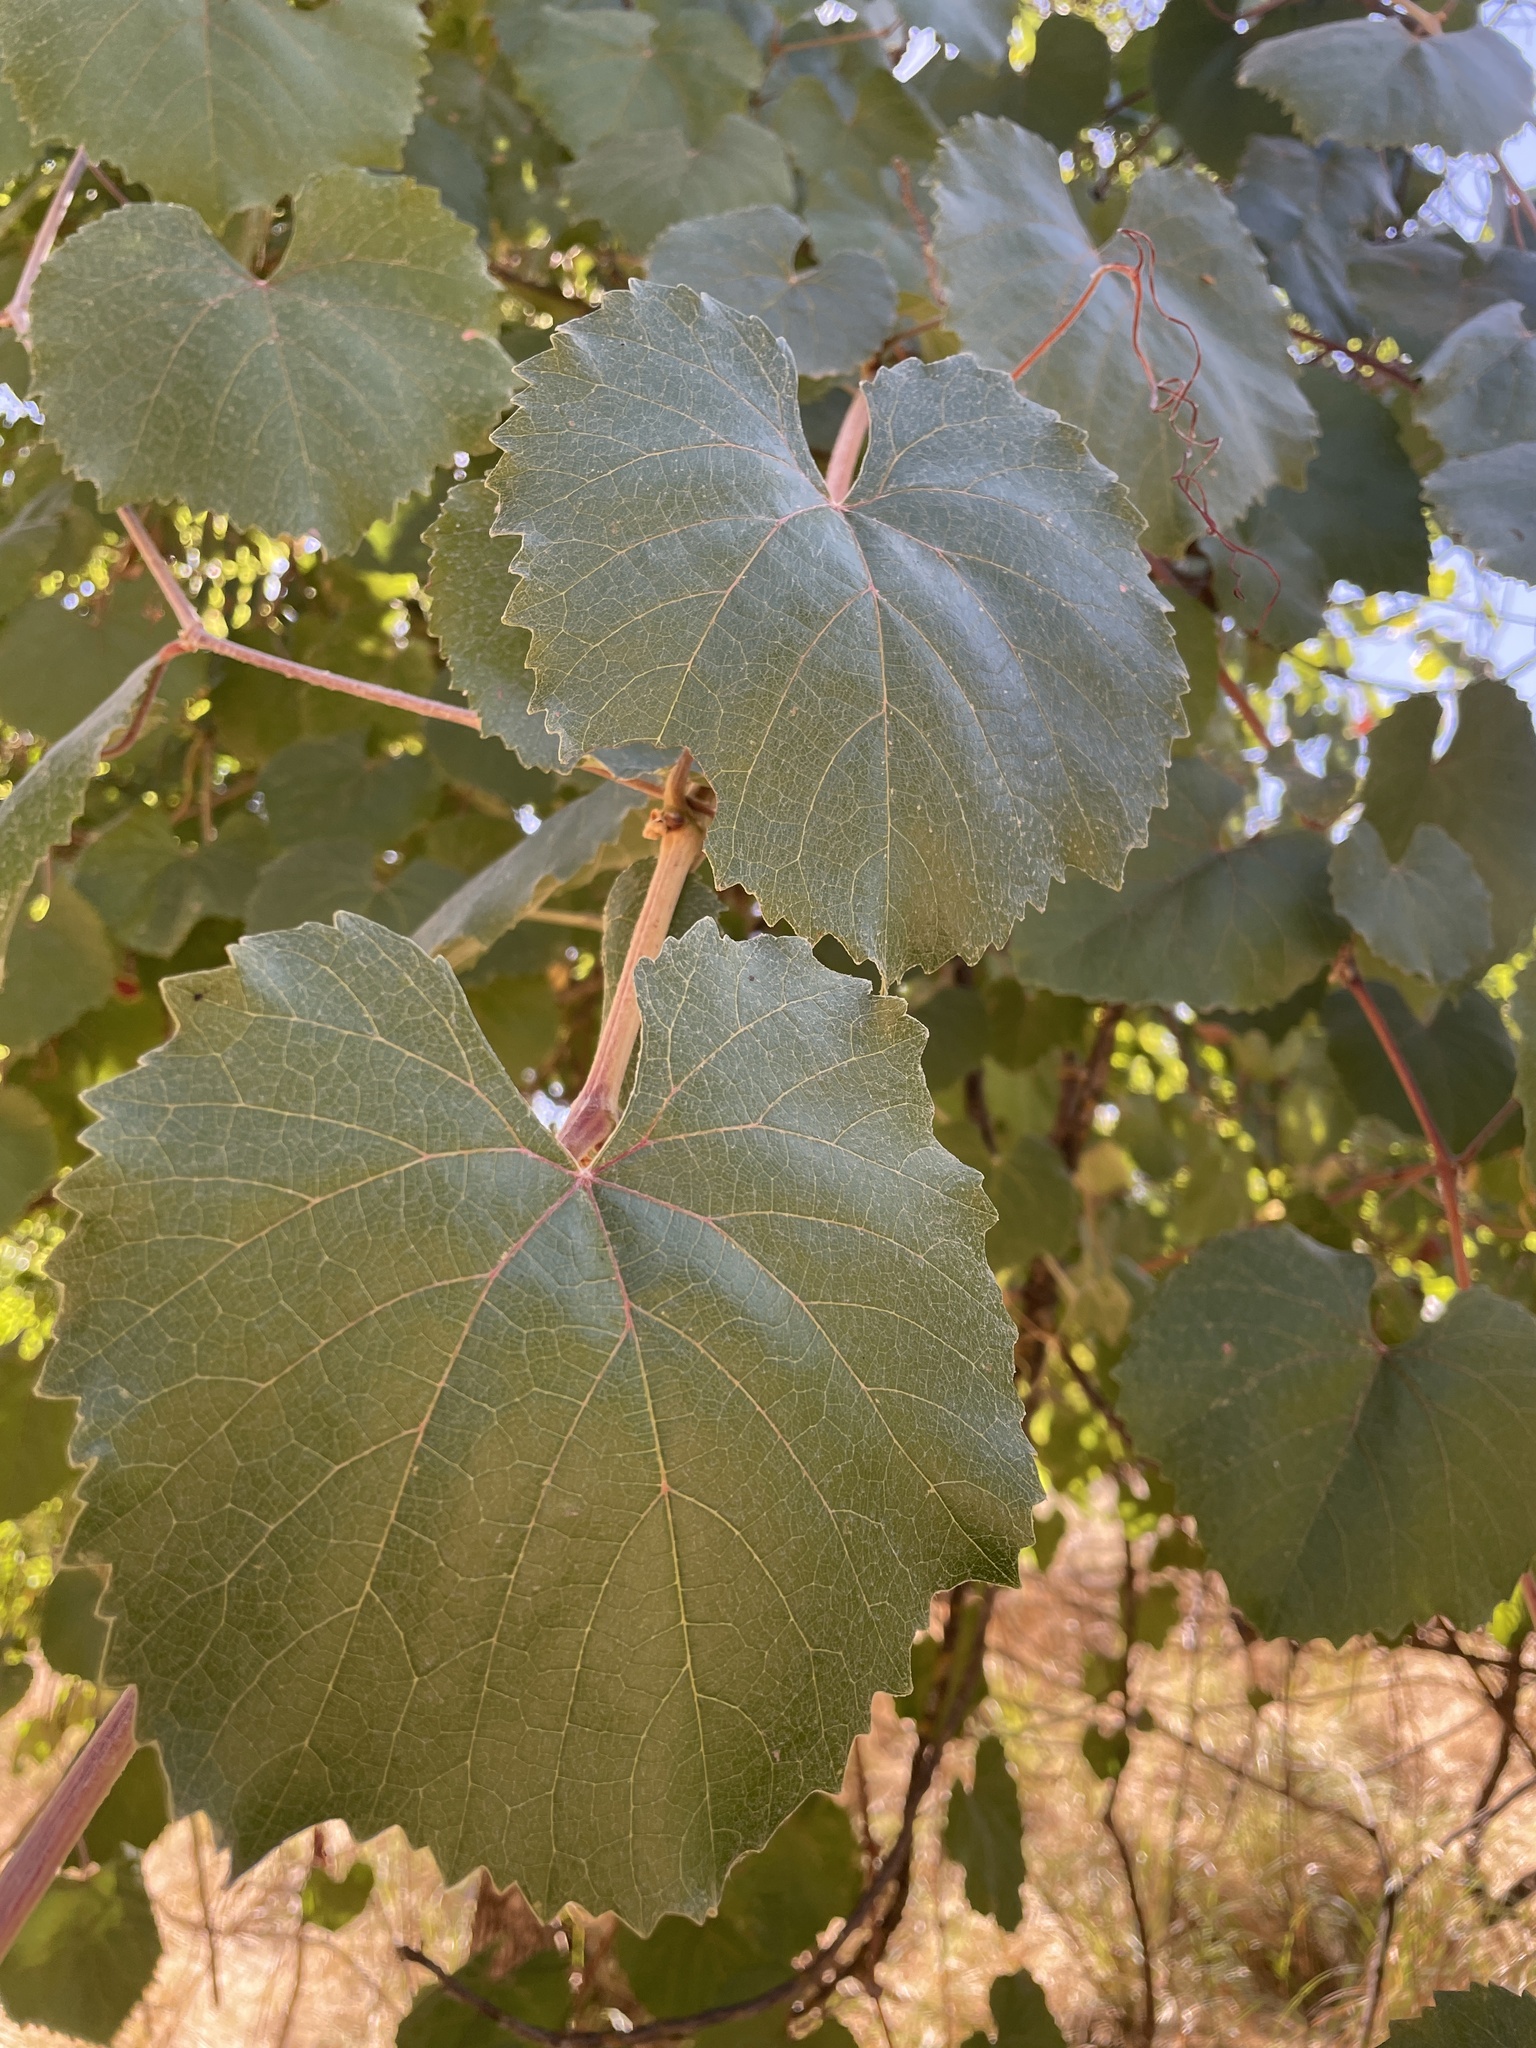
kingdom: Plantae
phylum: Tracheophyta
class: Magnoliopsida
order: Vitales
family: Vitaceae
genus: Vitis
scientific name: Vitis californica
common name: California wild grape
